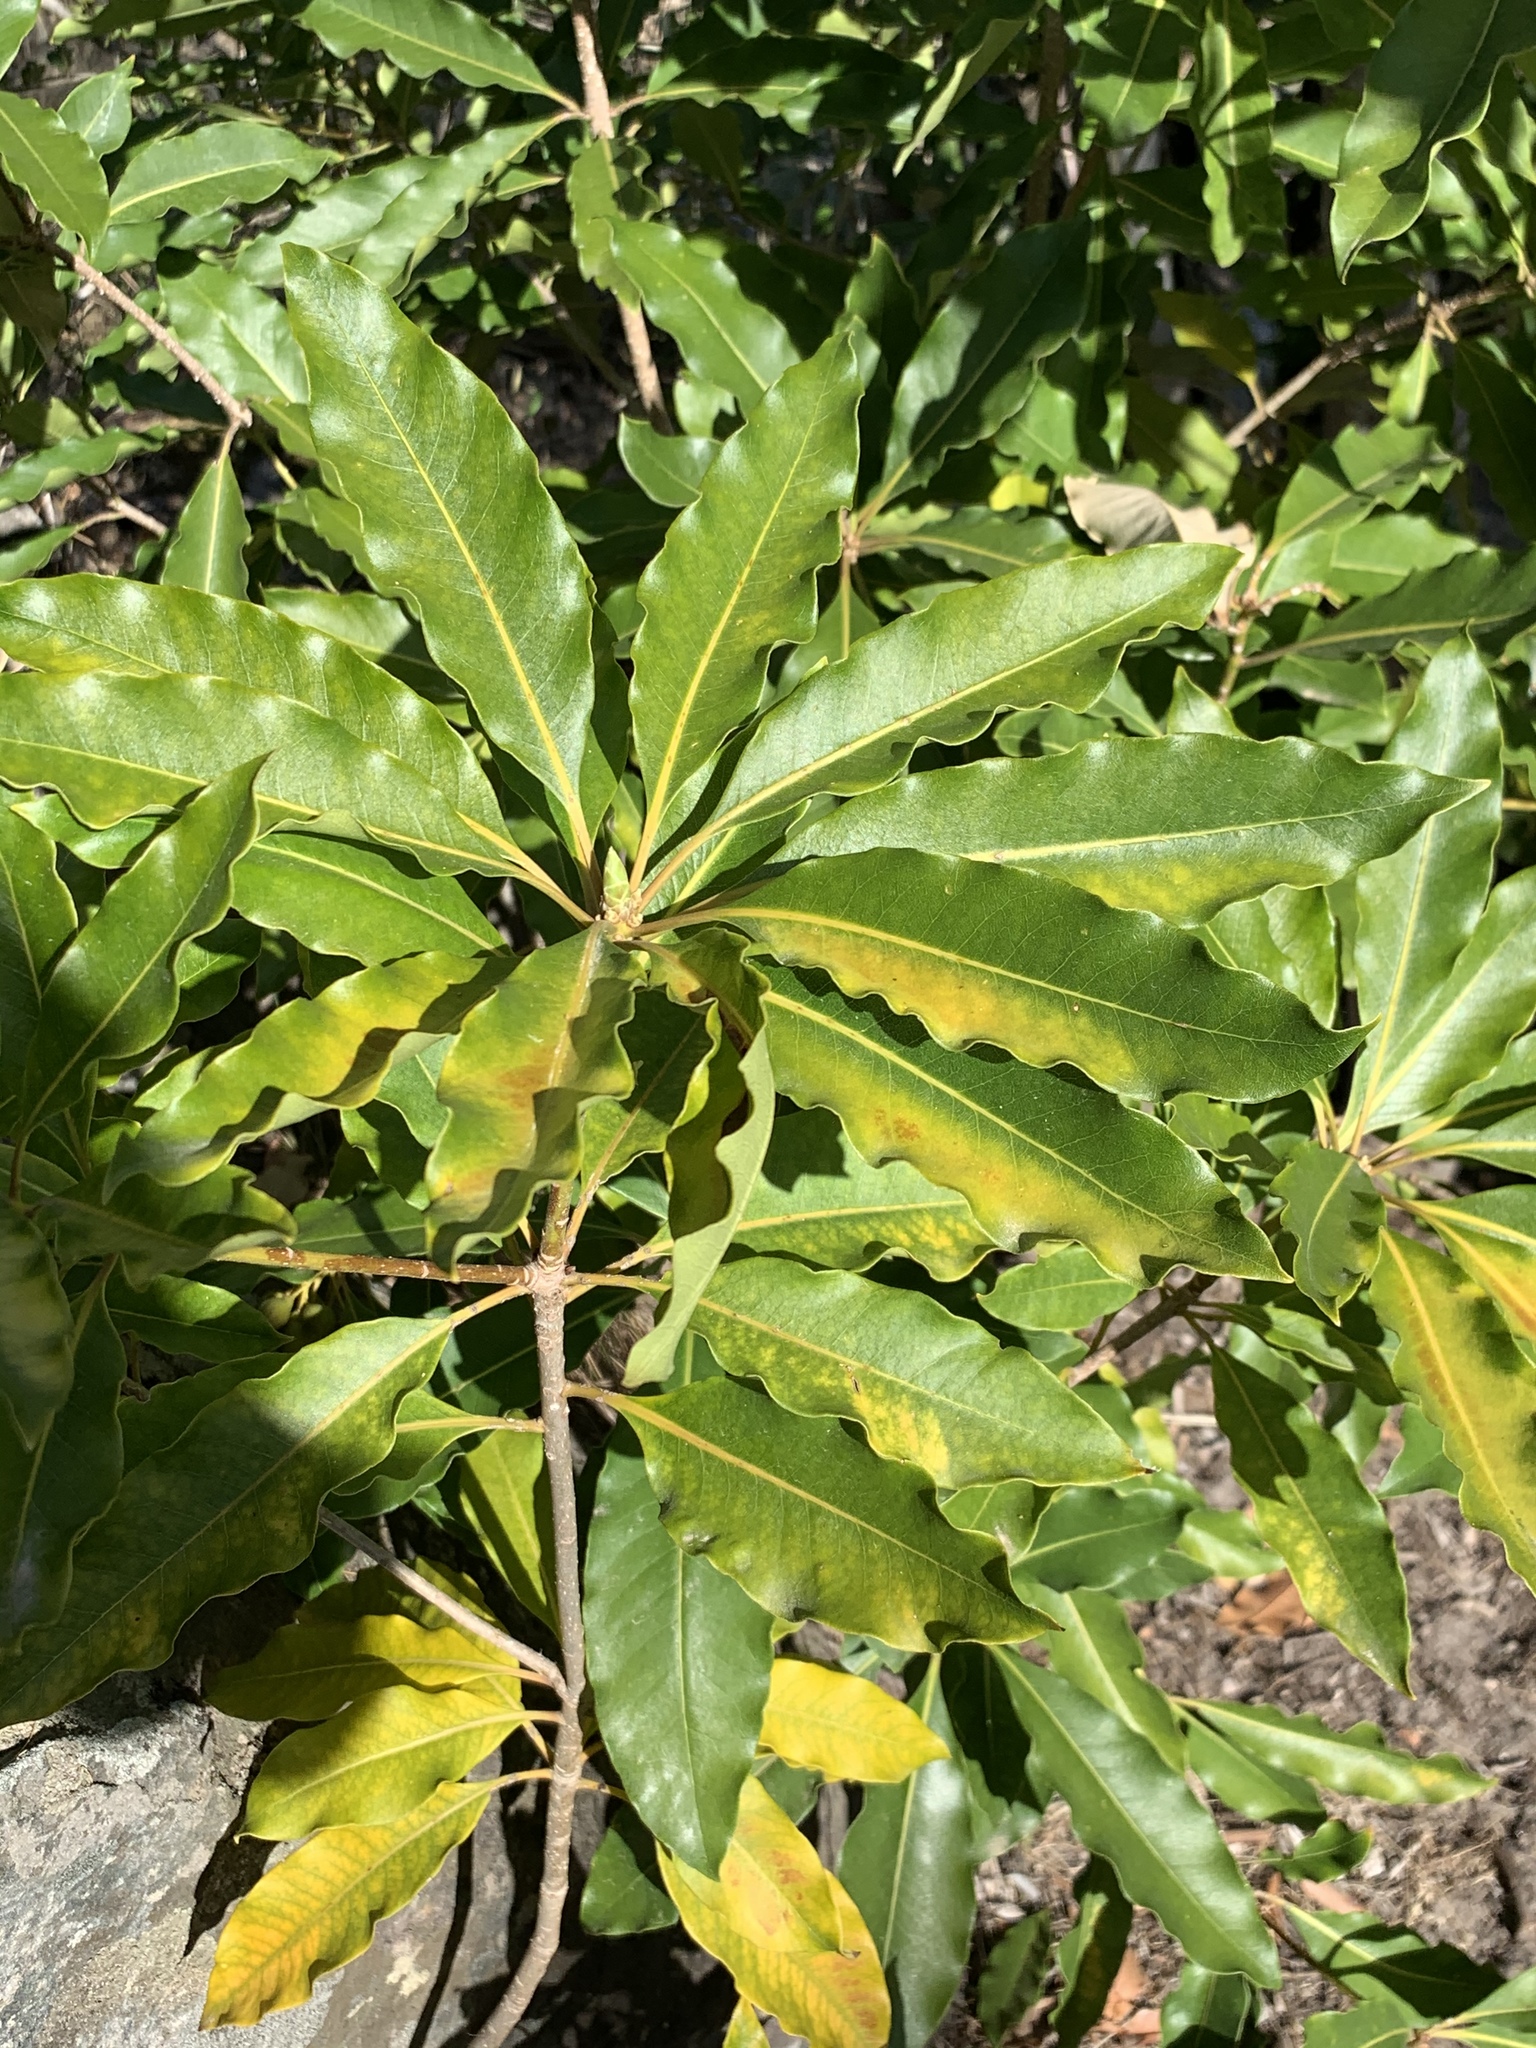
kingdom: Plantae
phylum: Tracheophyta
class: Magnoliopsida
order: Apiales
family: Pittosporaceae
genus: Pittosporum
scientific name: Pittosporum undulatum
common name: Australian cheesewood
